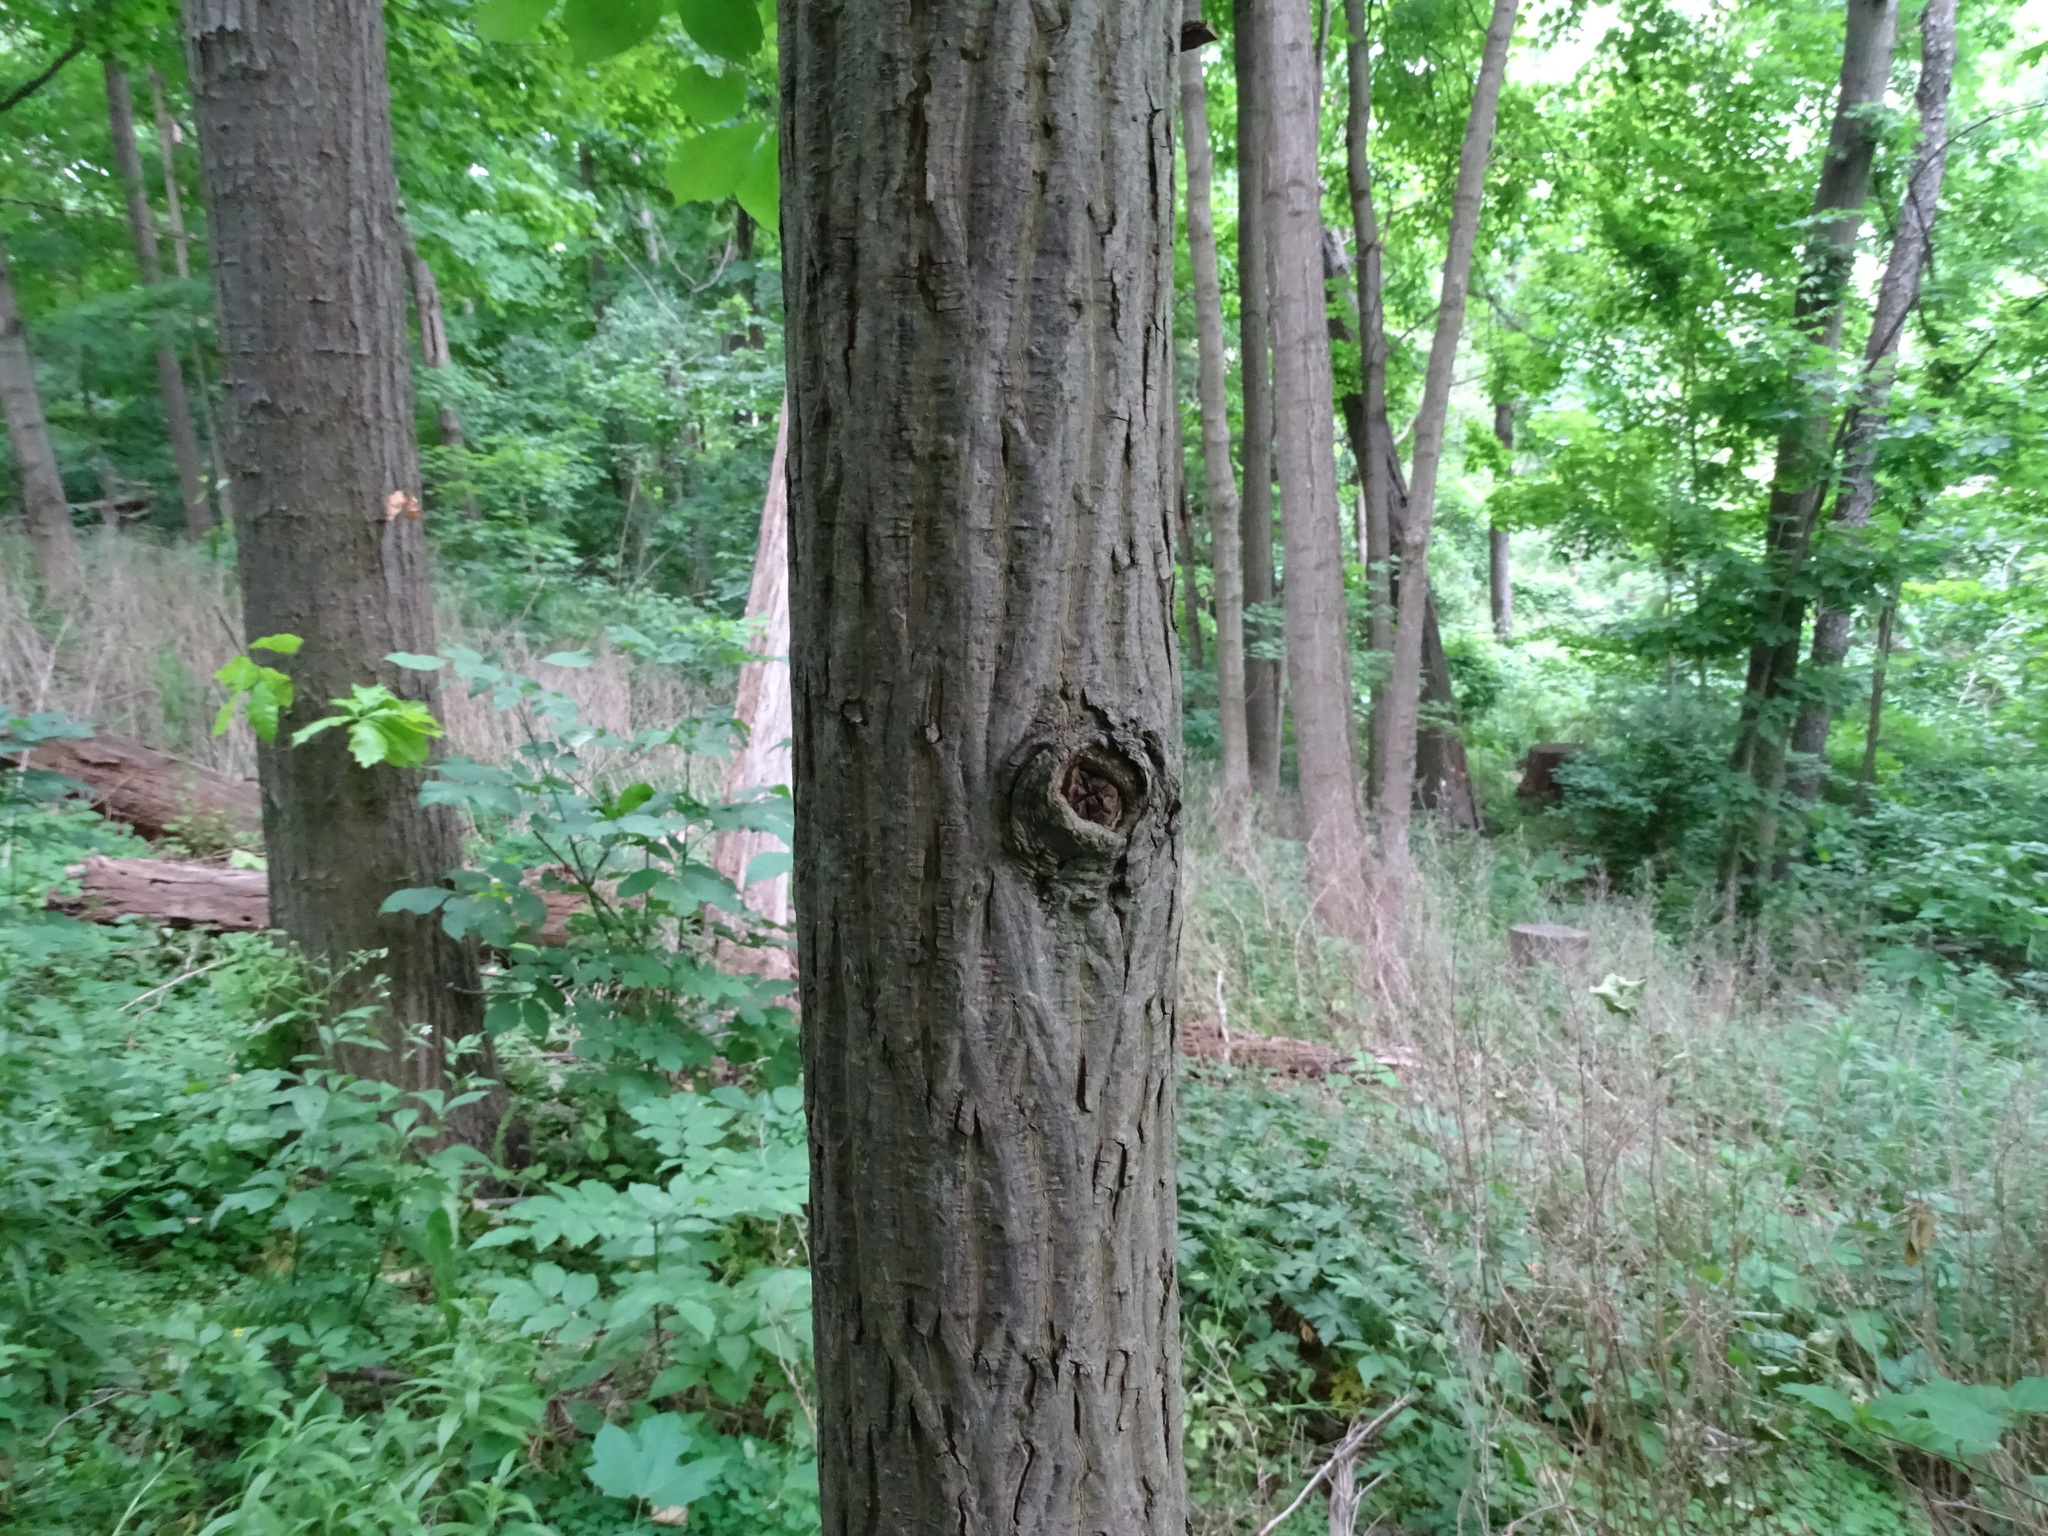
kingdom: Plantae
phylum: Tracheophyta
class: Magnoliopsida
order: Fagales
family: Juglandaceae
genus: Carya
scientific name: Carya cordiformis
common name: Bitternut hickory
